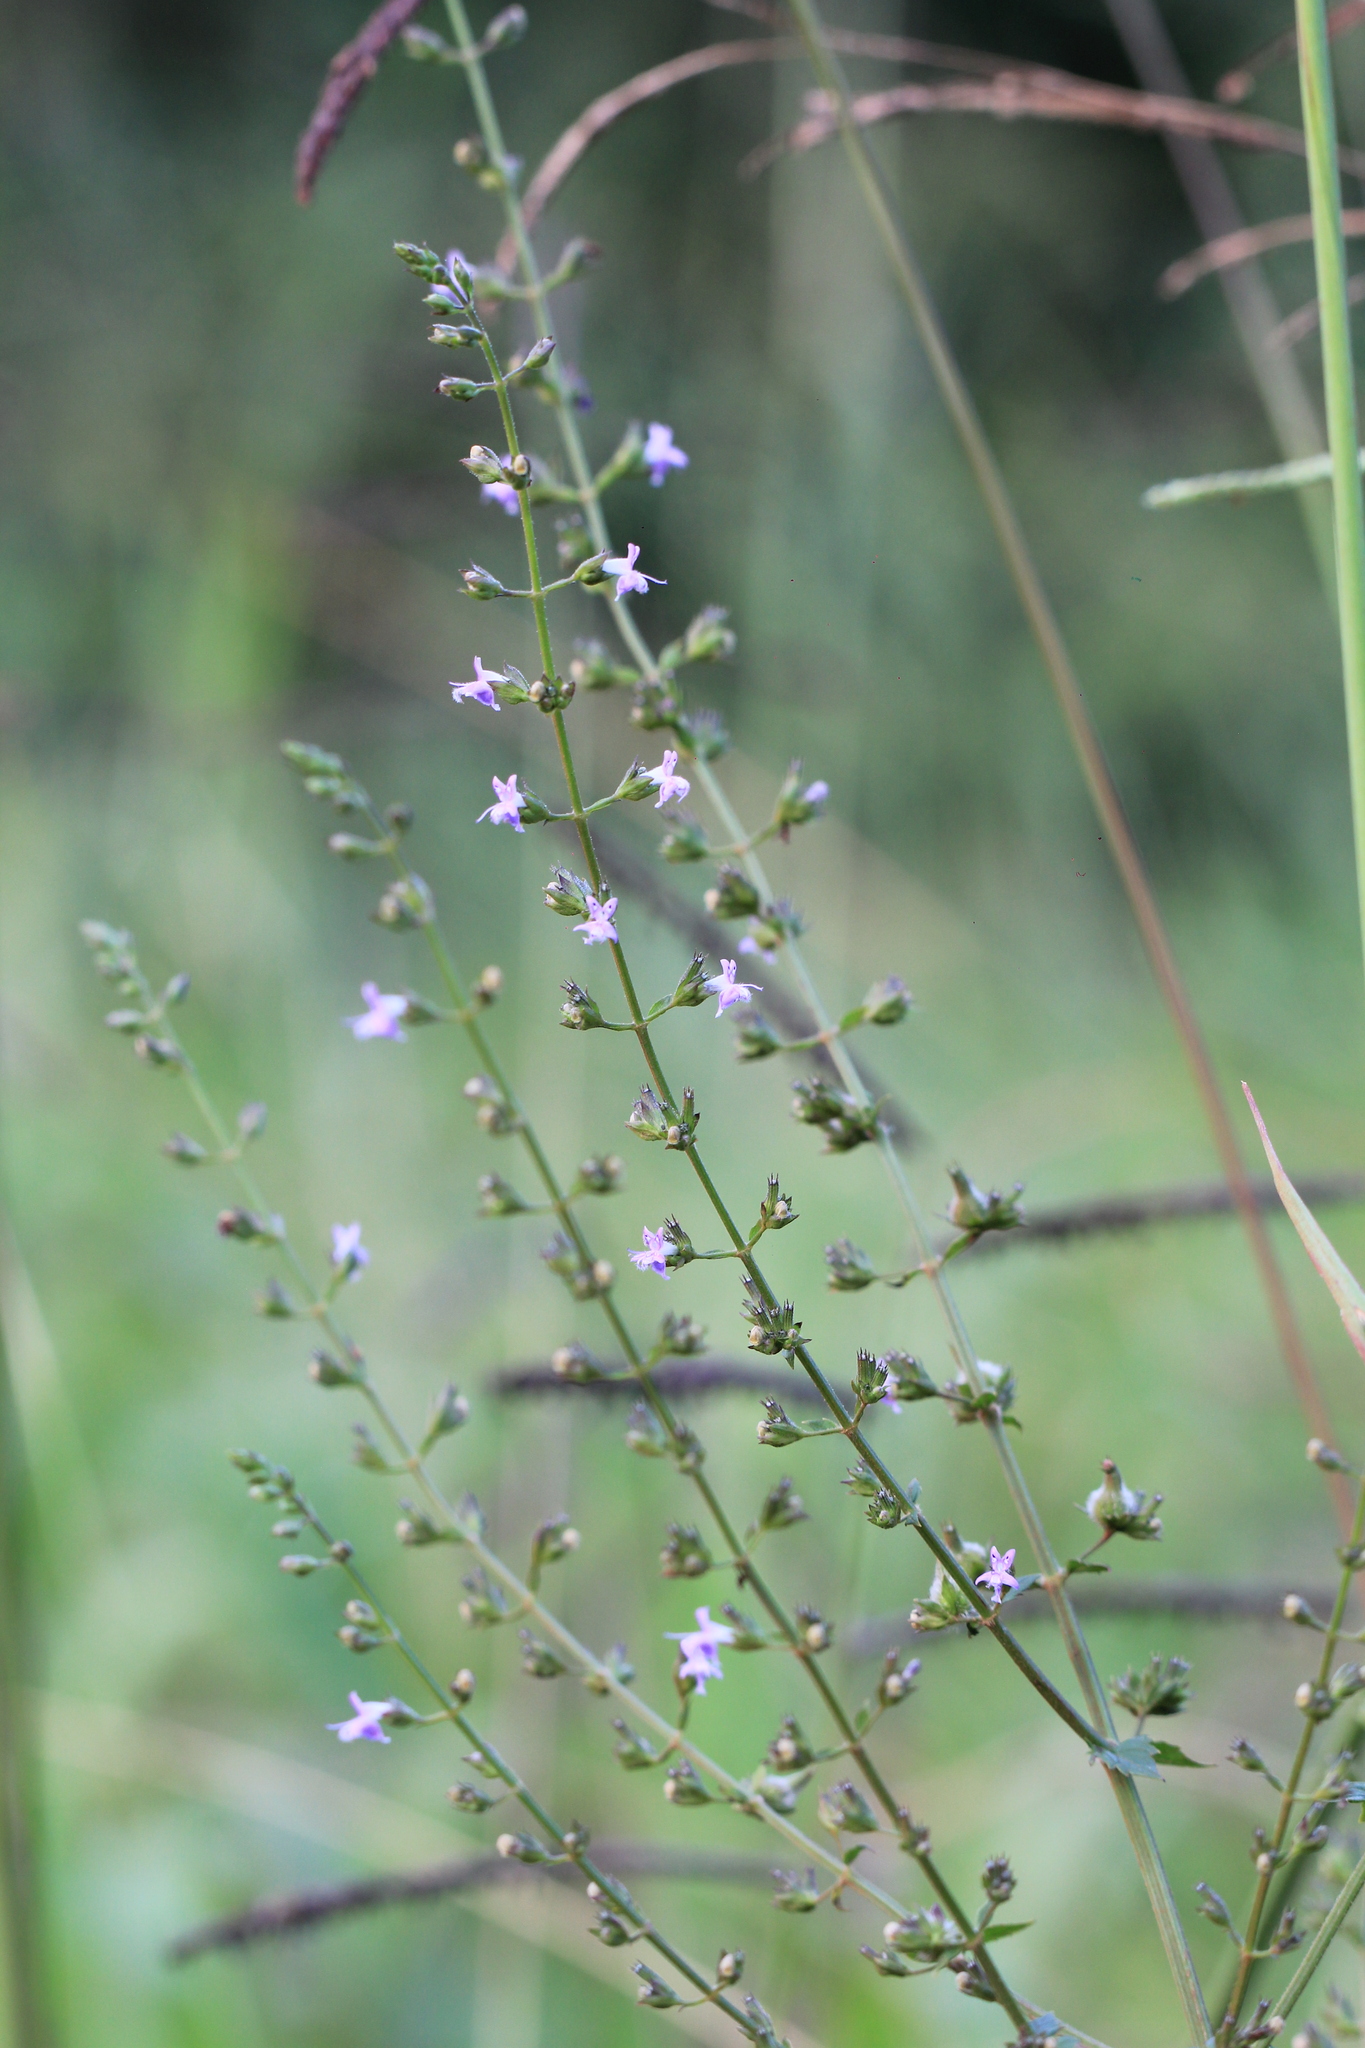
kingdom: Plantae
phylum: Tracheophyta
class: Magnoliopsida
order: Lamiales
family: Lamiaceae
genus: Condea
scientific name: Condea elegans
